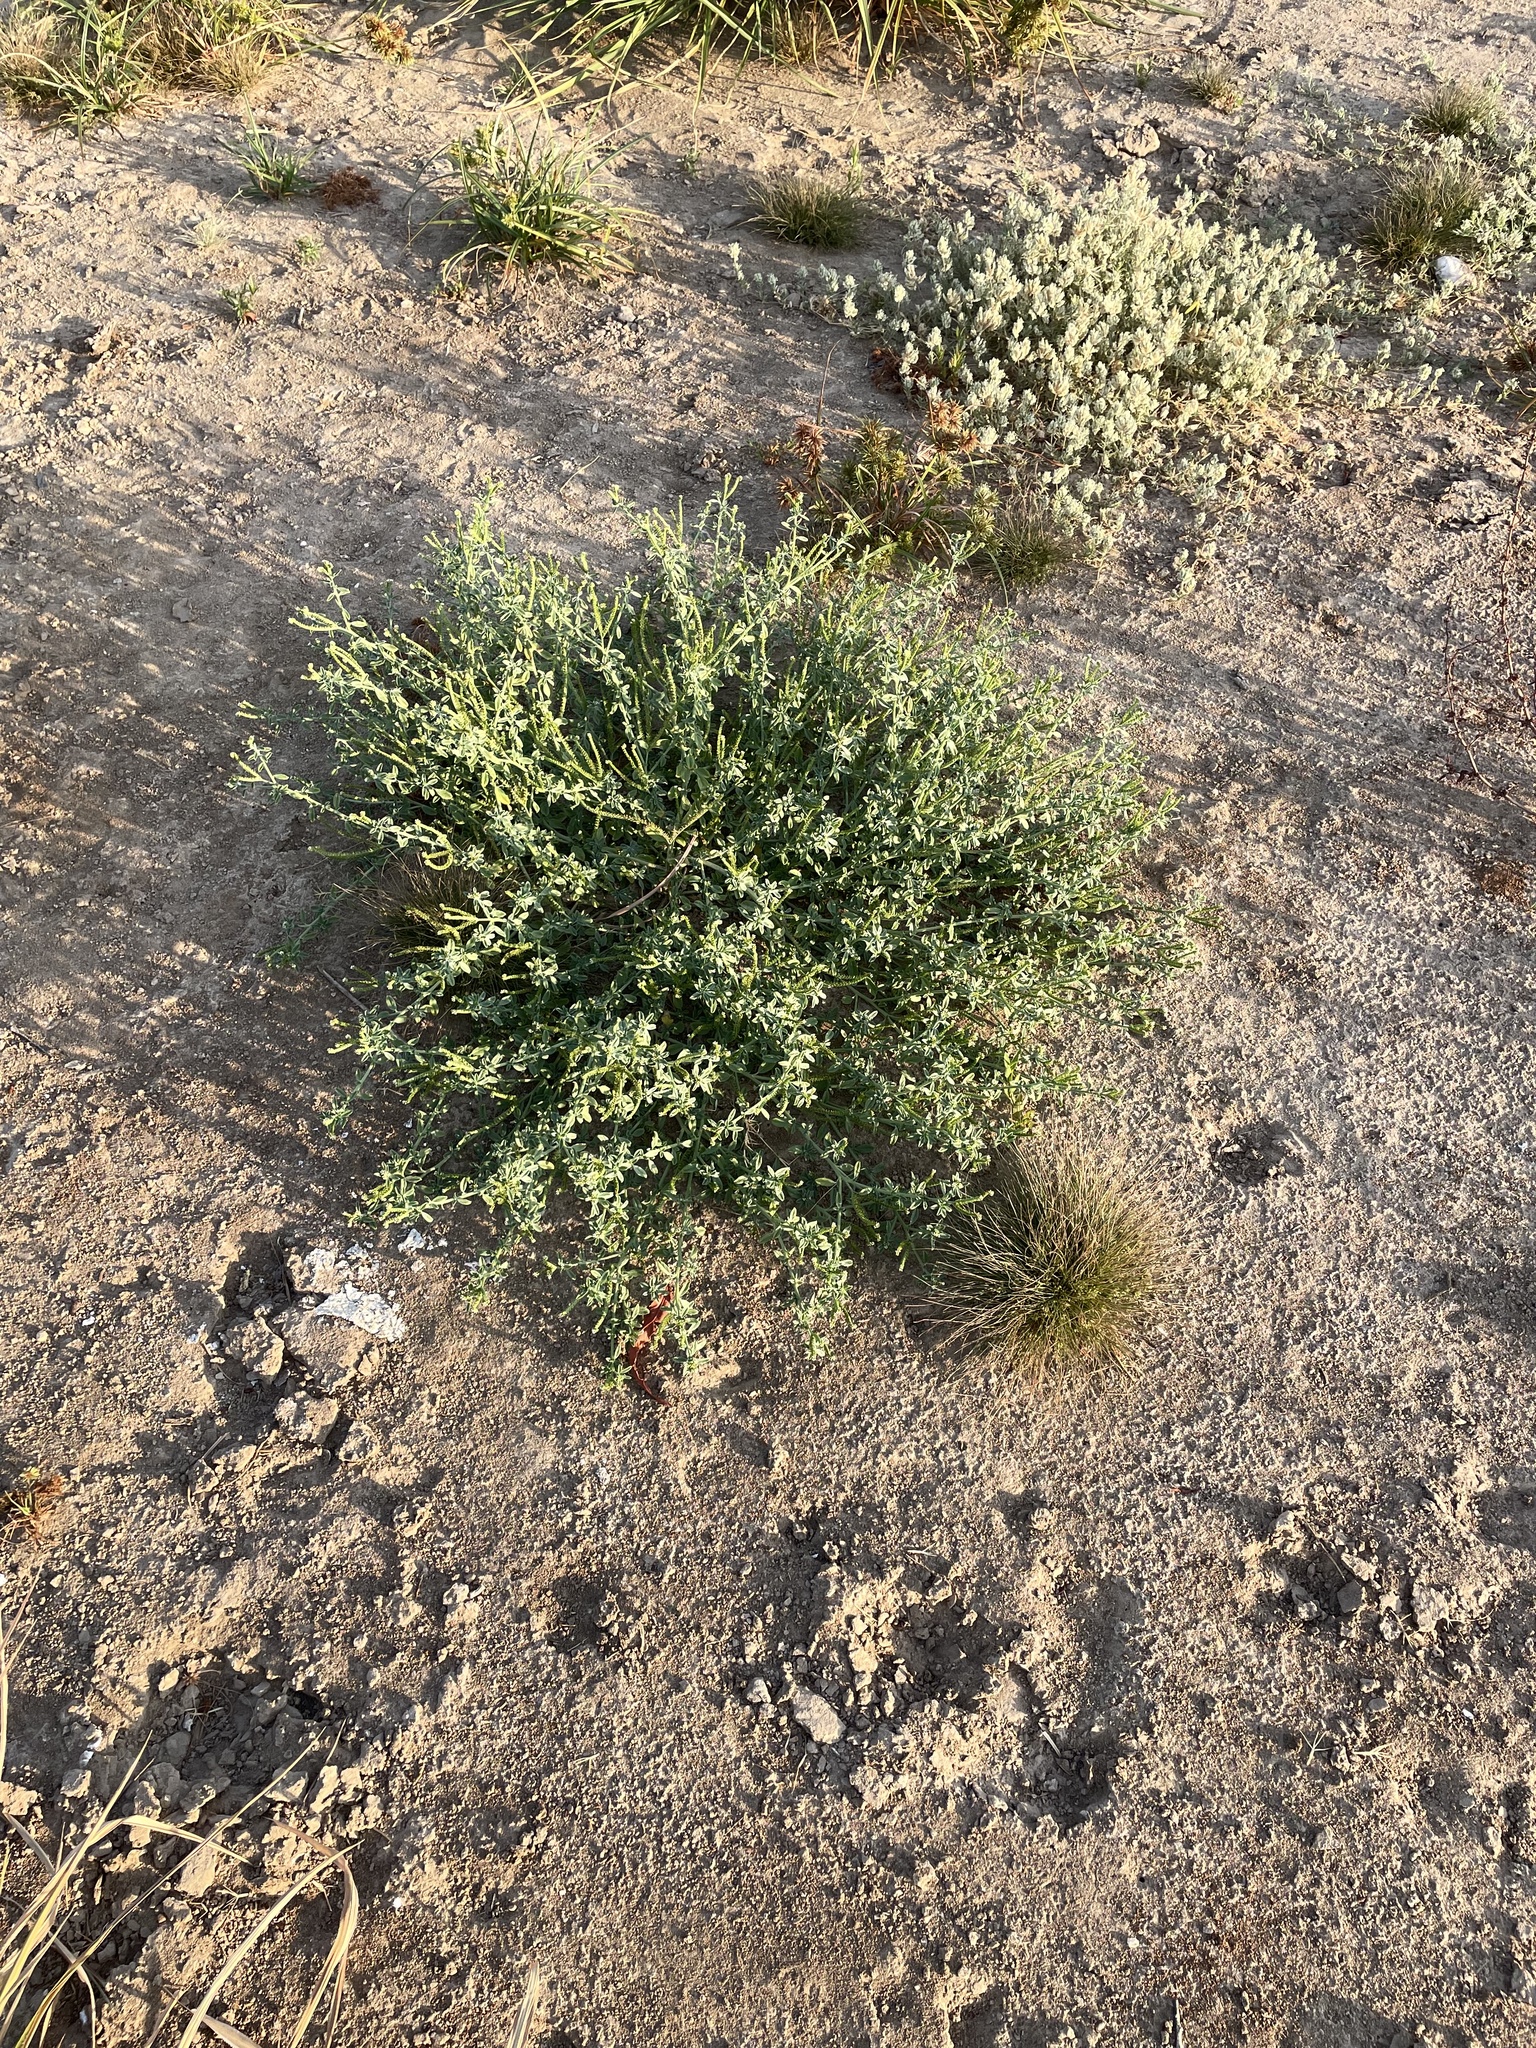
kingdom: Plantae
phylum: Tracheophyta
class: Magnoliopsida
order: Boraginales
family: Heliotropiaceae
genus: Euploca
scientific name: Euploca procumbens
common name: Fourspike heliotrope
